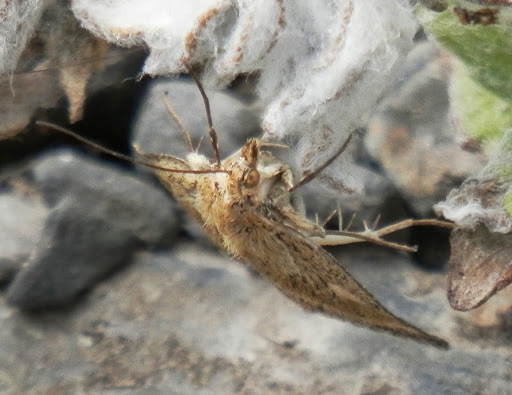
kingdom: Animalia
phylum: Arthropoda
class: Insecta
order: Lepidoptera
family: Crambidae
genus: Pyrausta
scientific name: Pyrausta unifascialis
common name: One-banded pyrausta
